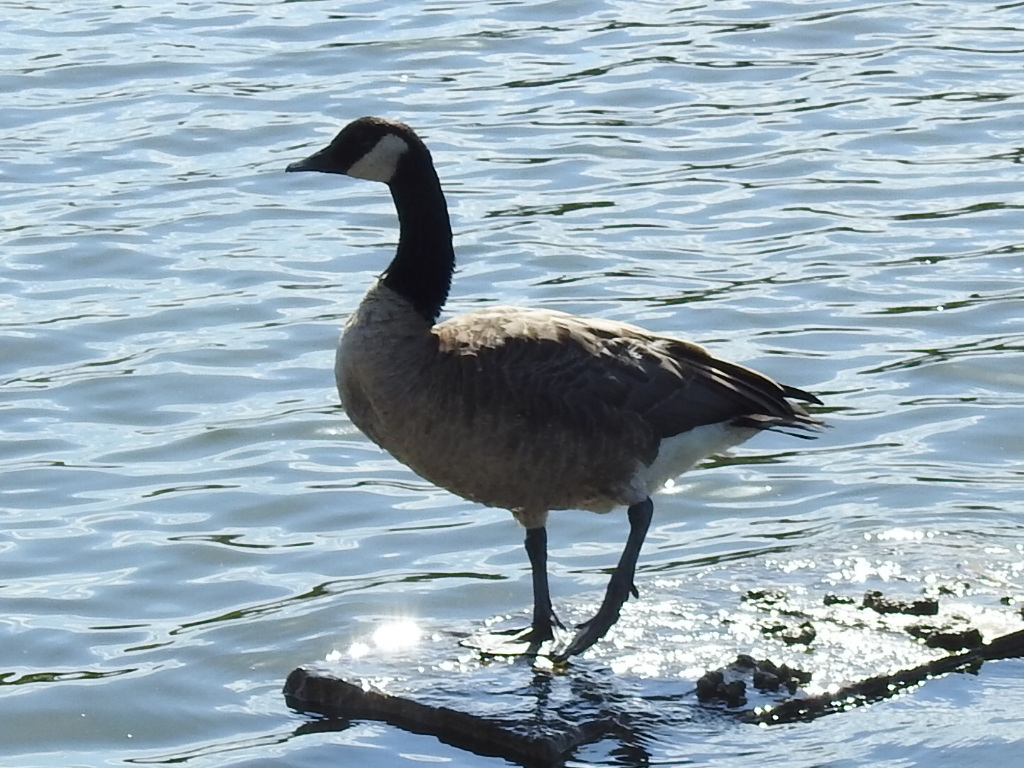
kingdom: Animalia
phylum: Chordata
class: Aves
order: Anseriformes
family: Anatidae
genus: Branta
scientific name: Branta canadensis
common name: Canada goose
